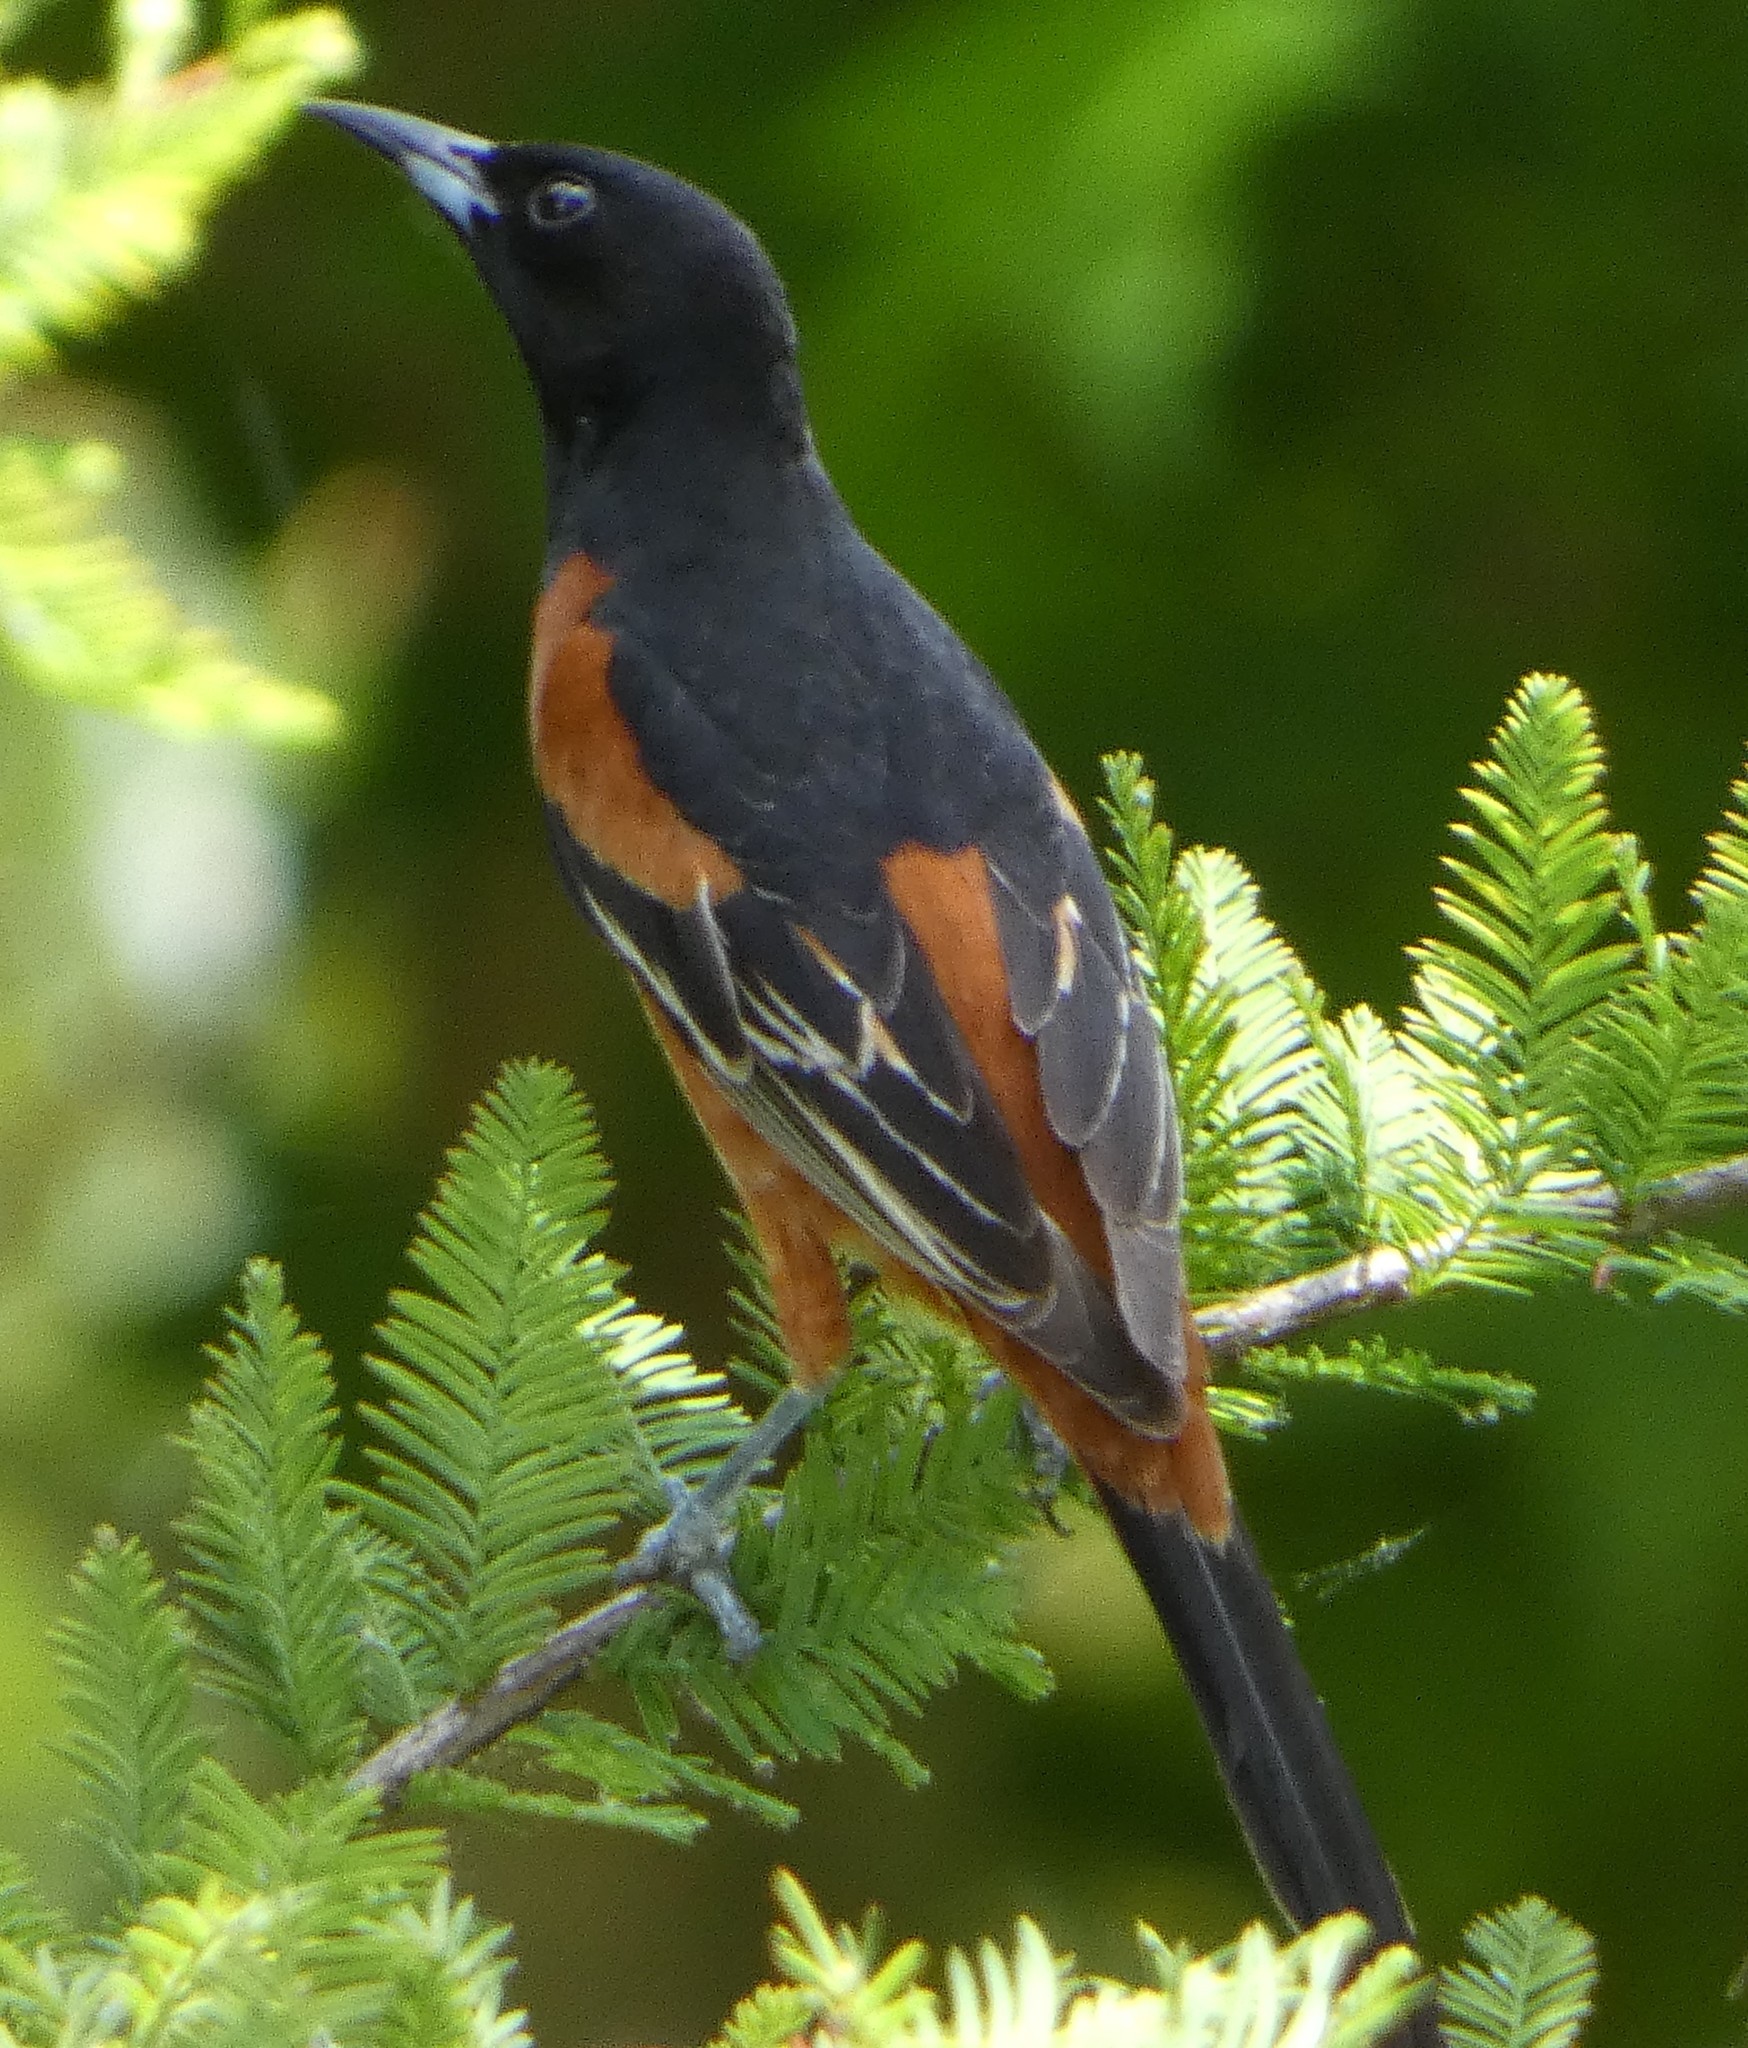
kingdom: Animalia
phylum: Chordata
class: Aves
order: Passeriformes
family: Icteridae
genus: Icterus
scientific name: Icterus spurius
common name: Orchard oriole
